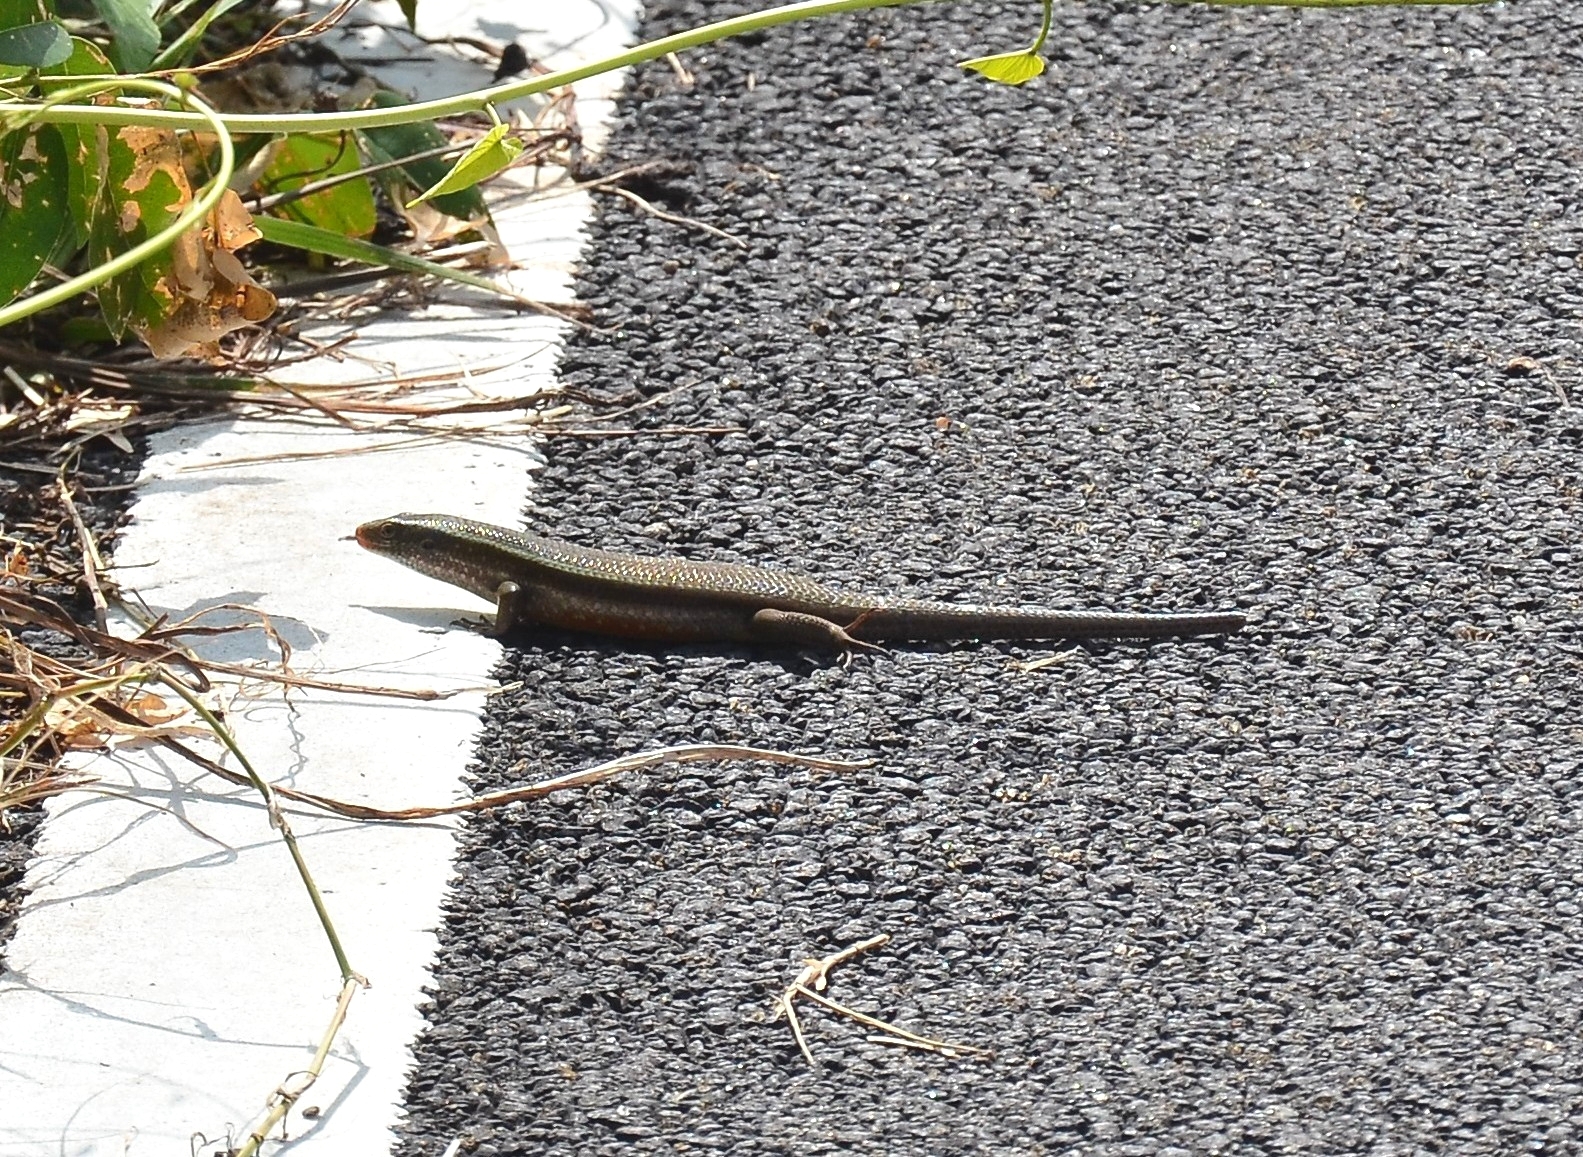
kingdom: Animalia
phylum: Chordata
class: Squamata
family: Scincidae
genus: Eutropis
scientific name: Eutropis carinata
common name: Keeled indian mabuya
